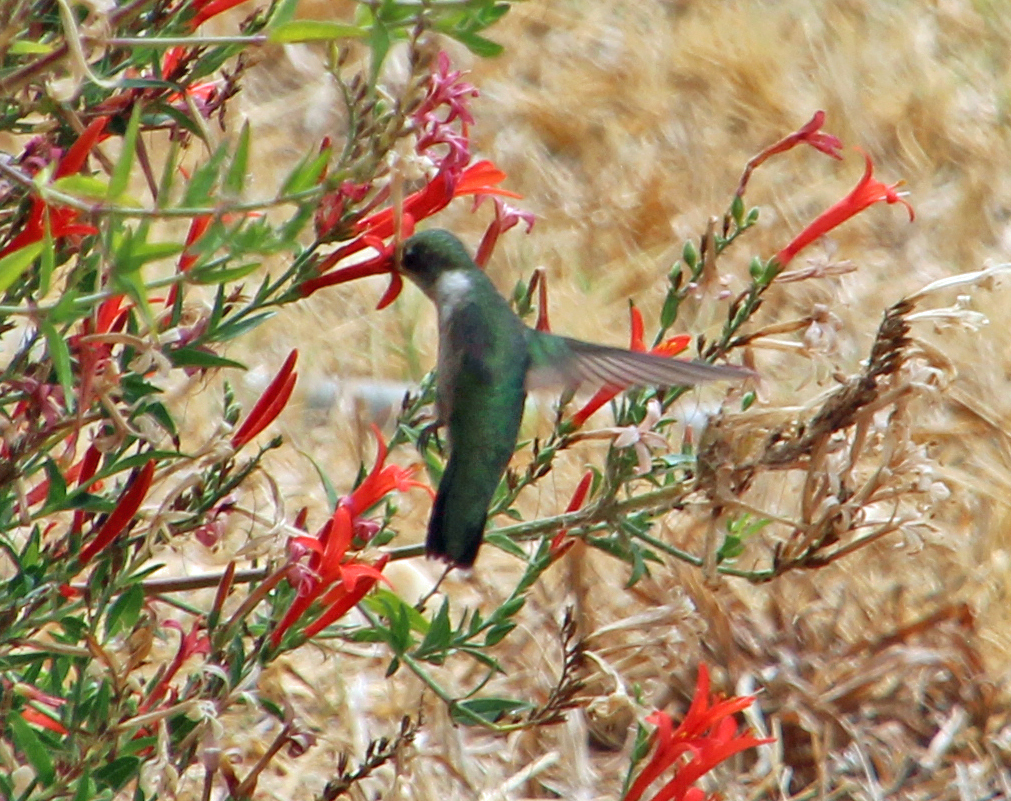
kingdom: Animalia
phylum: Chordata
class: Aves
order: Apodiformes
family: Trochilidae
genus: Archilochus
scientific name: Archilochus alexandri
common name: Black-chinned hummingbird
